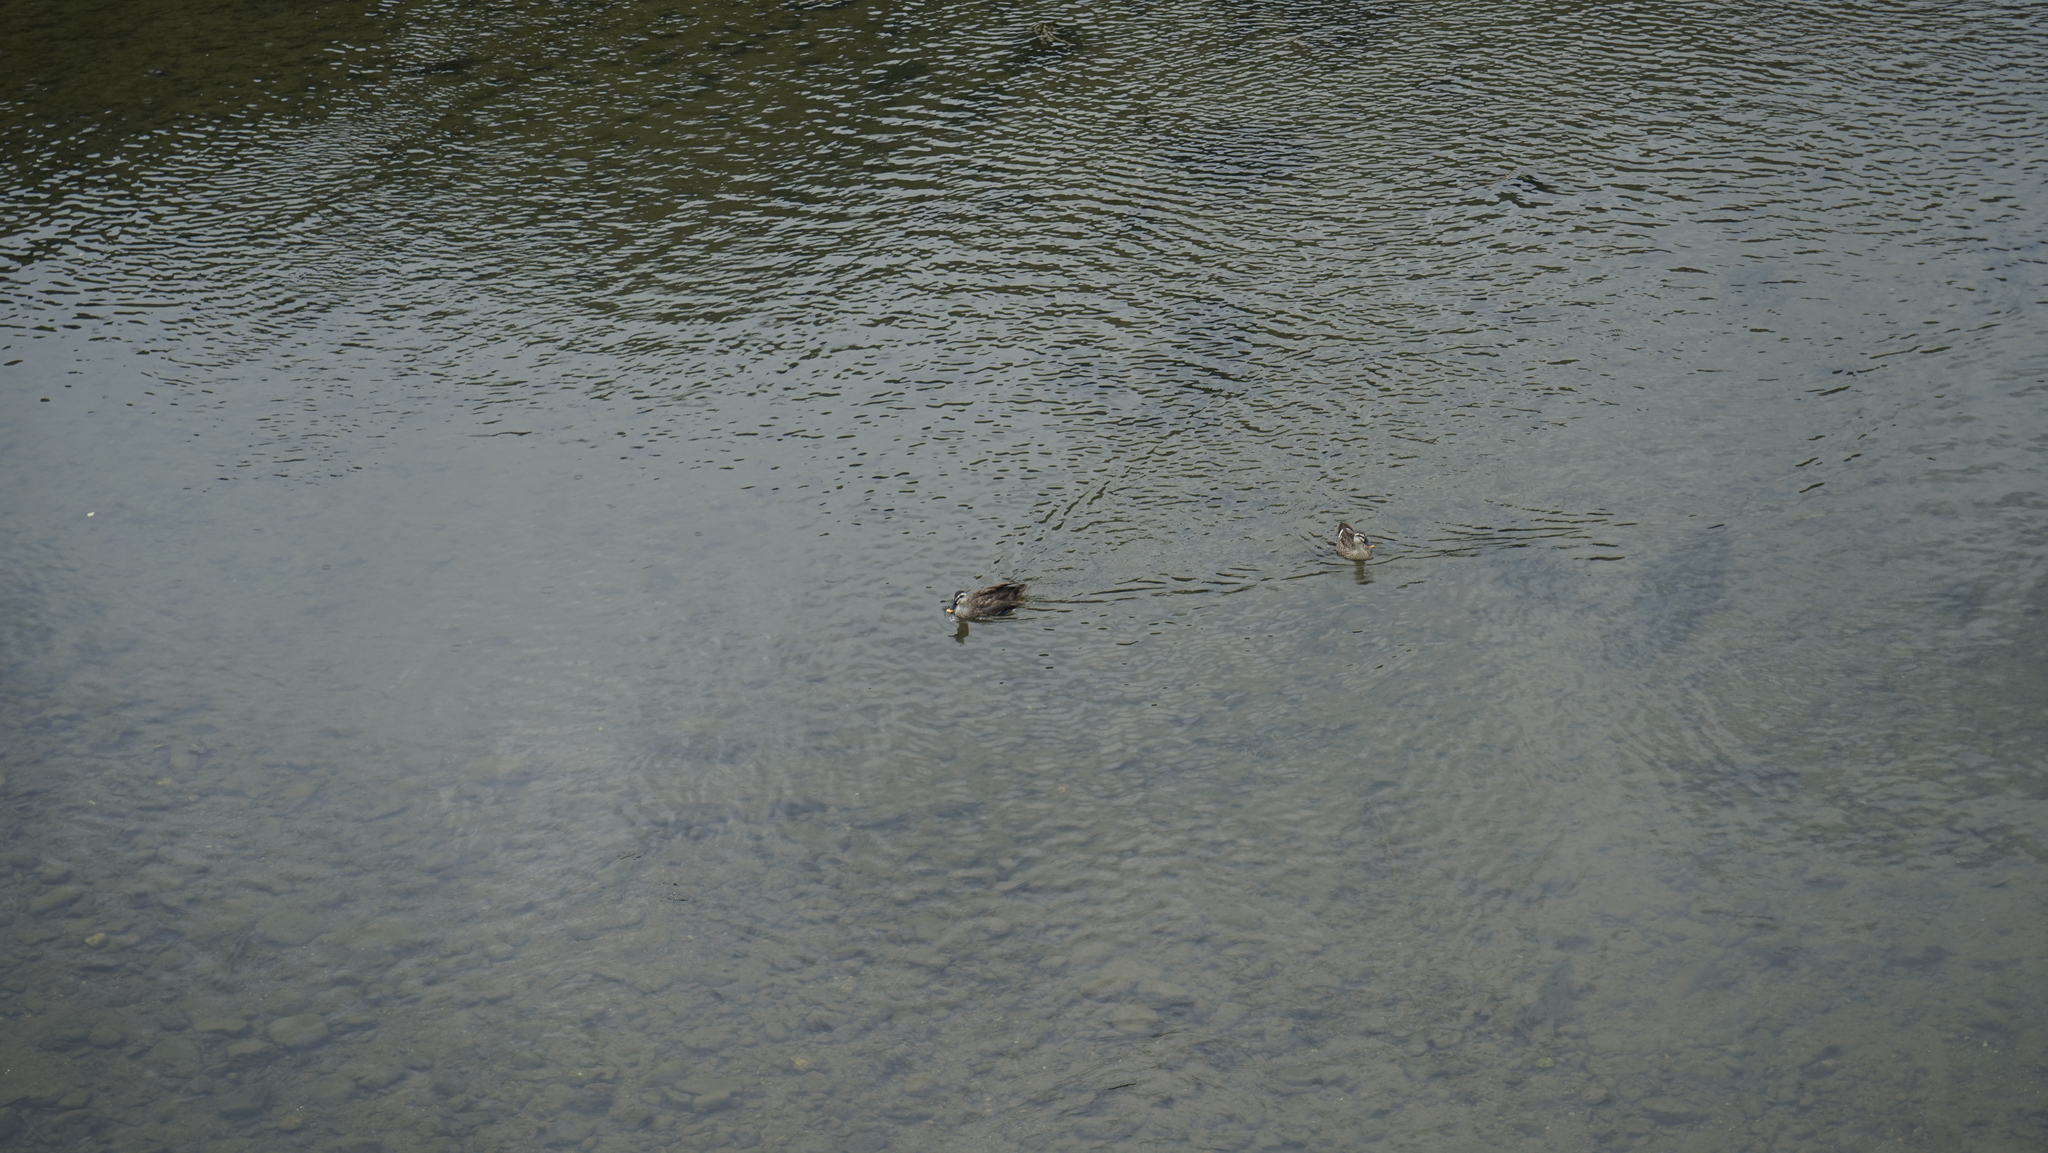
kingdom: Animalia
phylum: Chordata
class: Aves
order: Anseriformes
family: Anatidae
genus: Anas
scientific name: Anas zonorhyncha
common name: Eastern spot-billed duck
